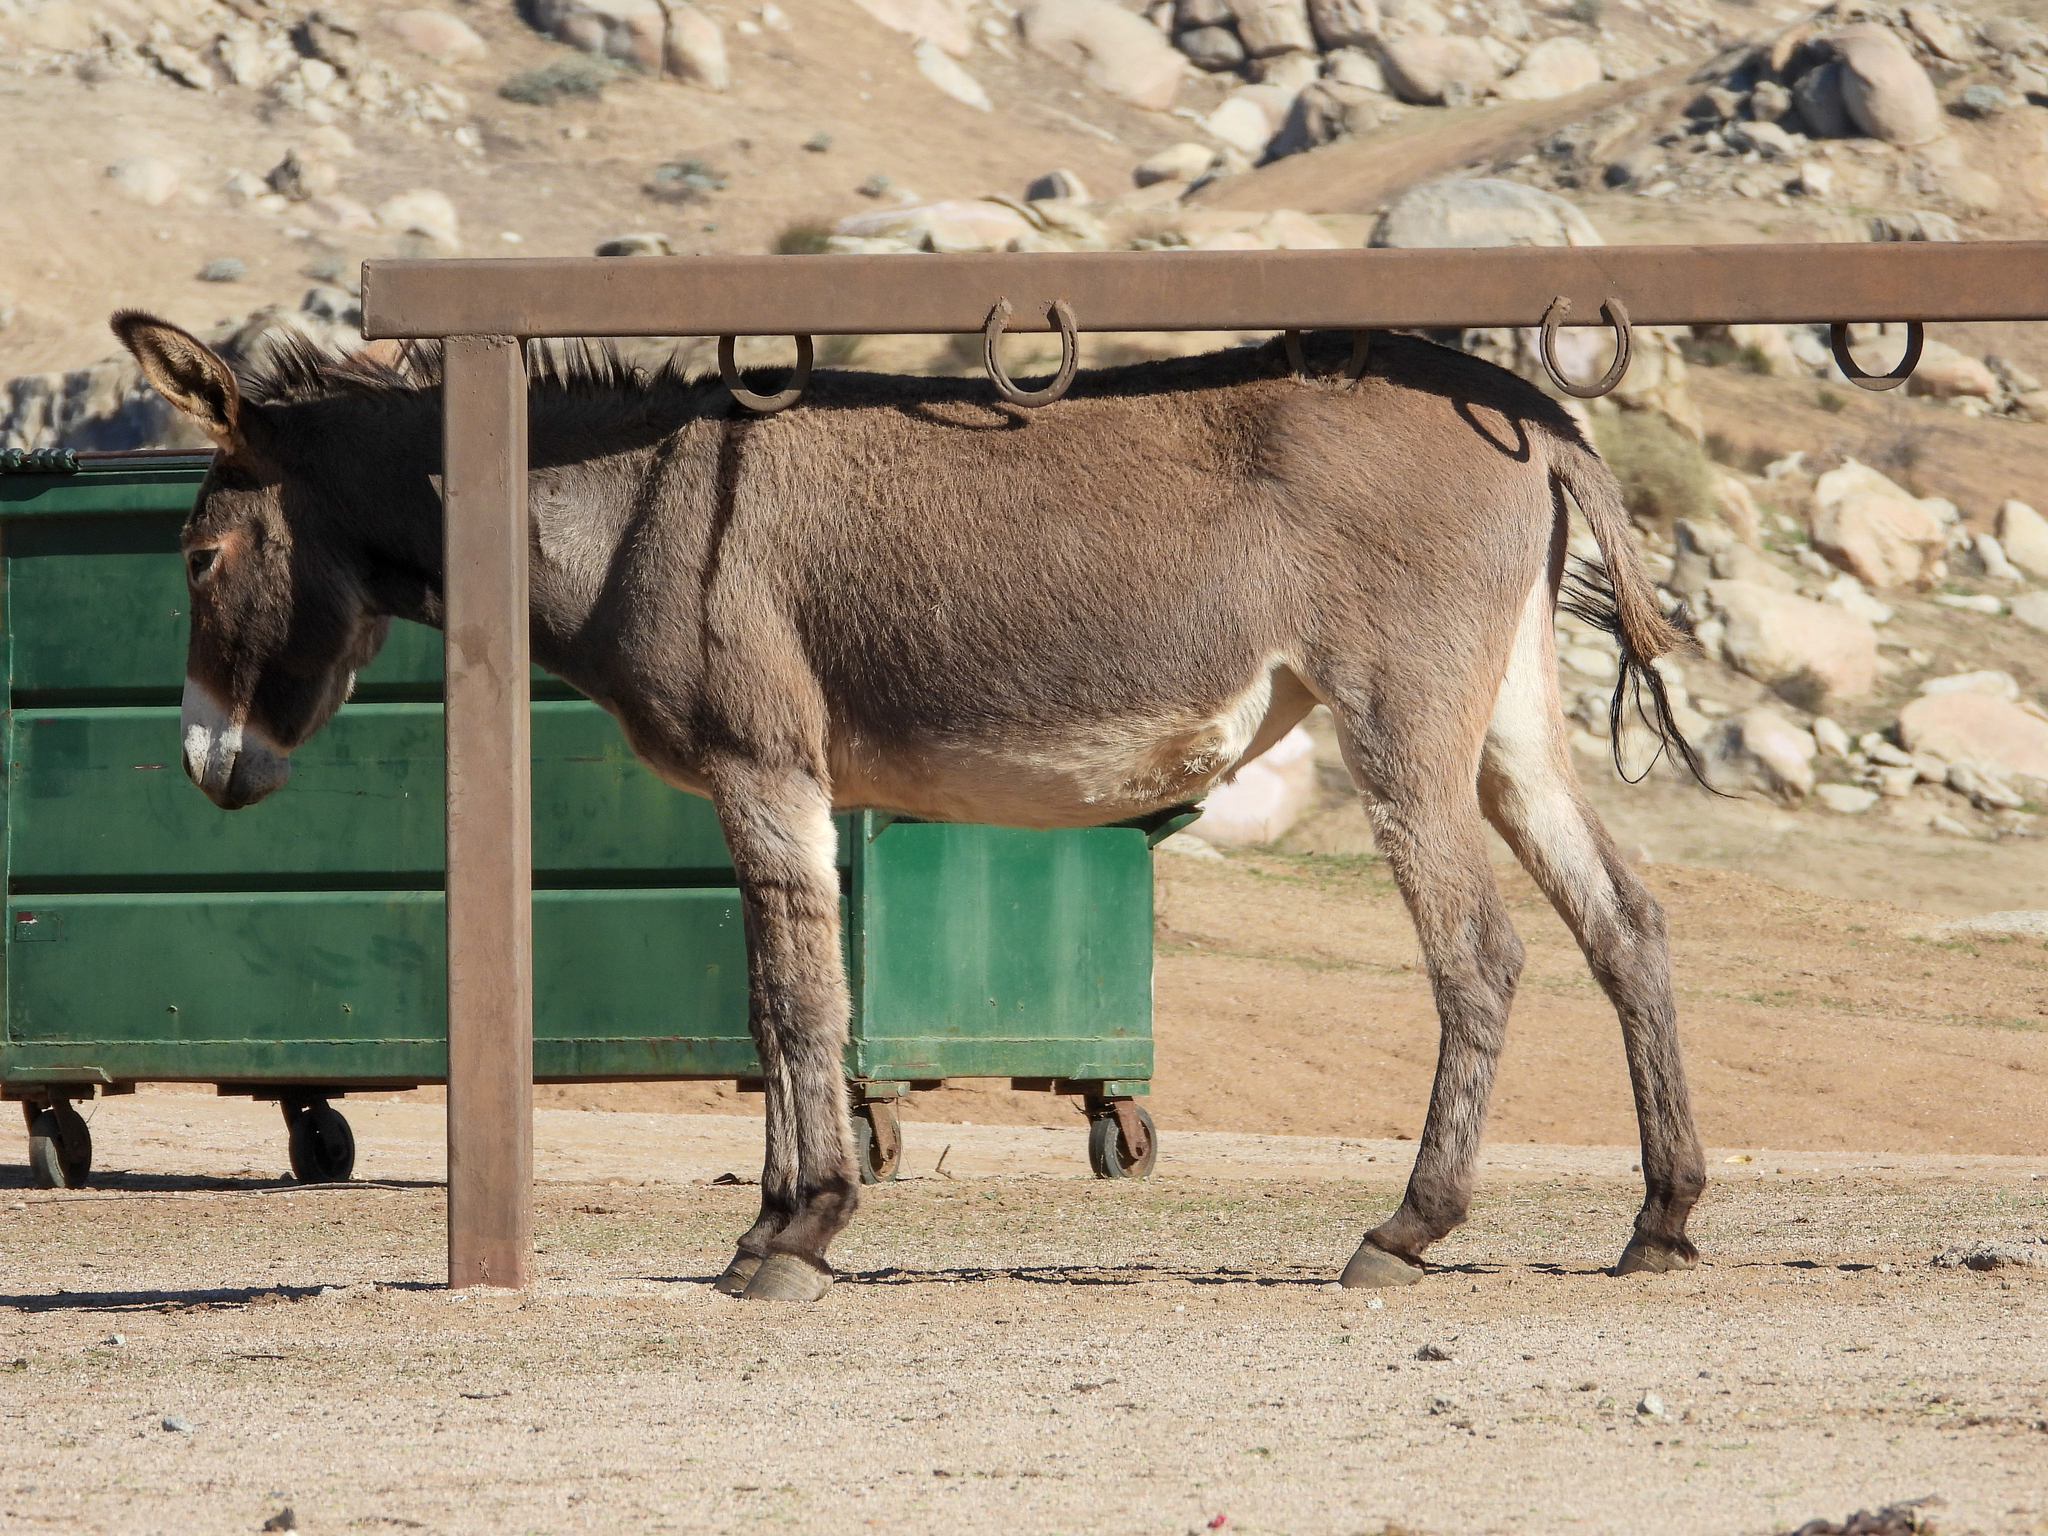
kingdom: Animalia
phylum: Chordata
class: Mammalia
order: Perissodactyla
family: Equidae
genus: Equus
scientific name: Equus asinus
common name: Ass
